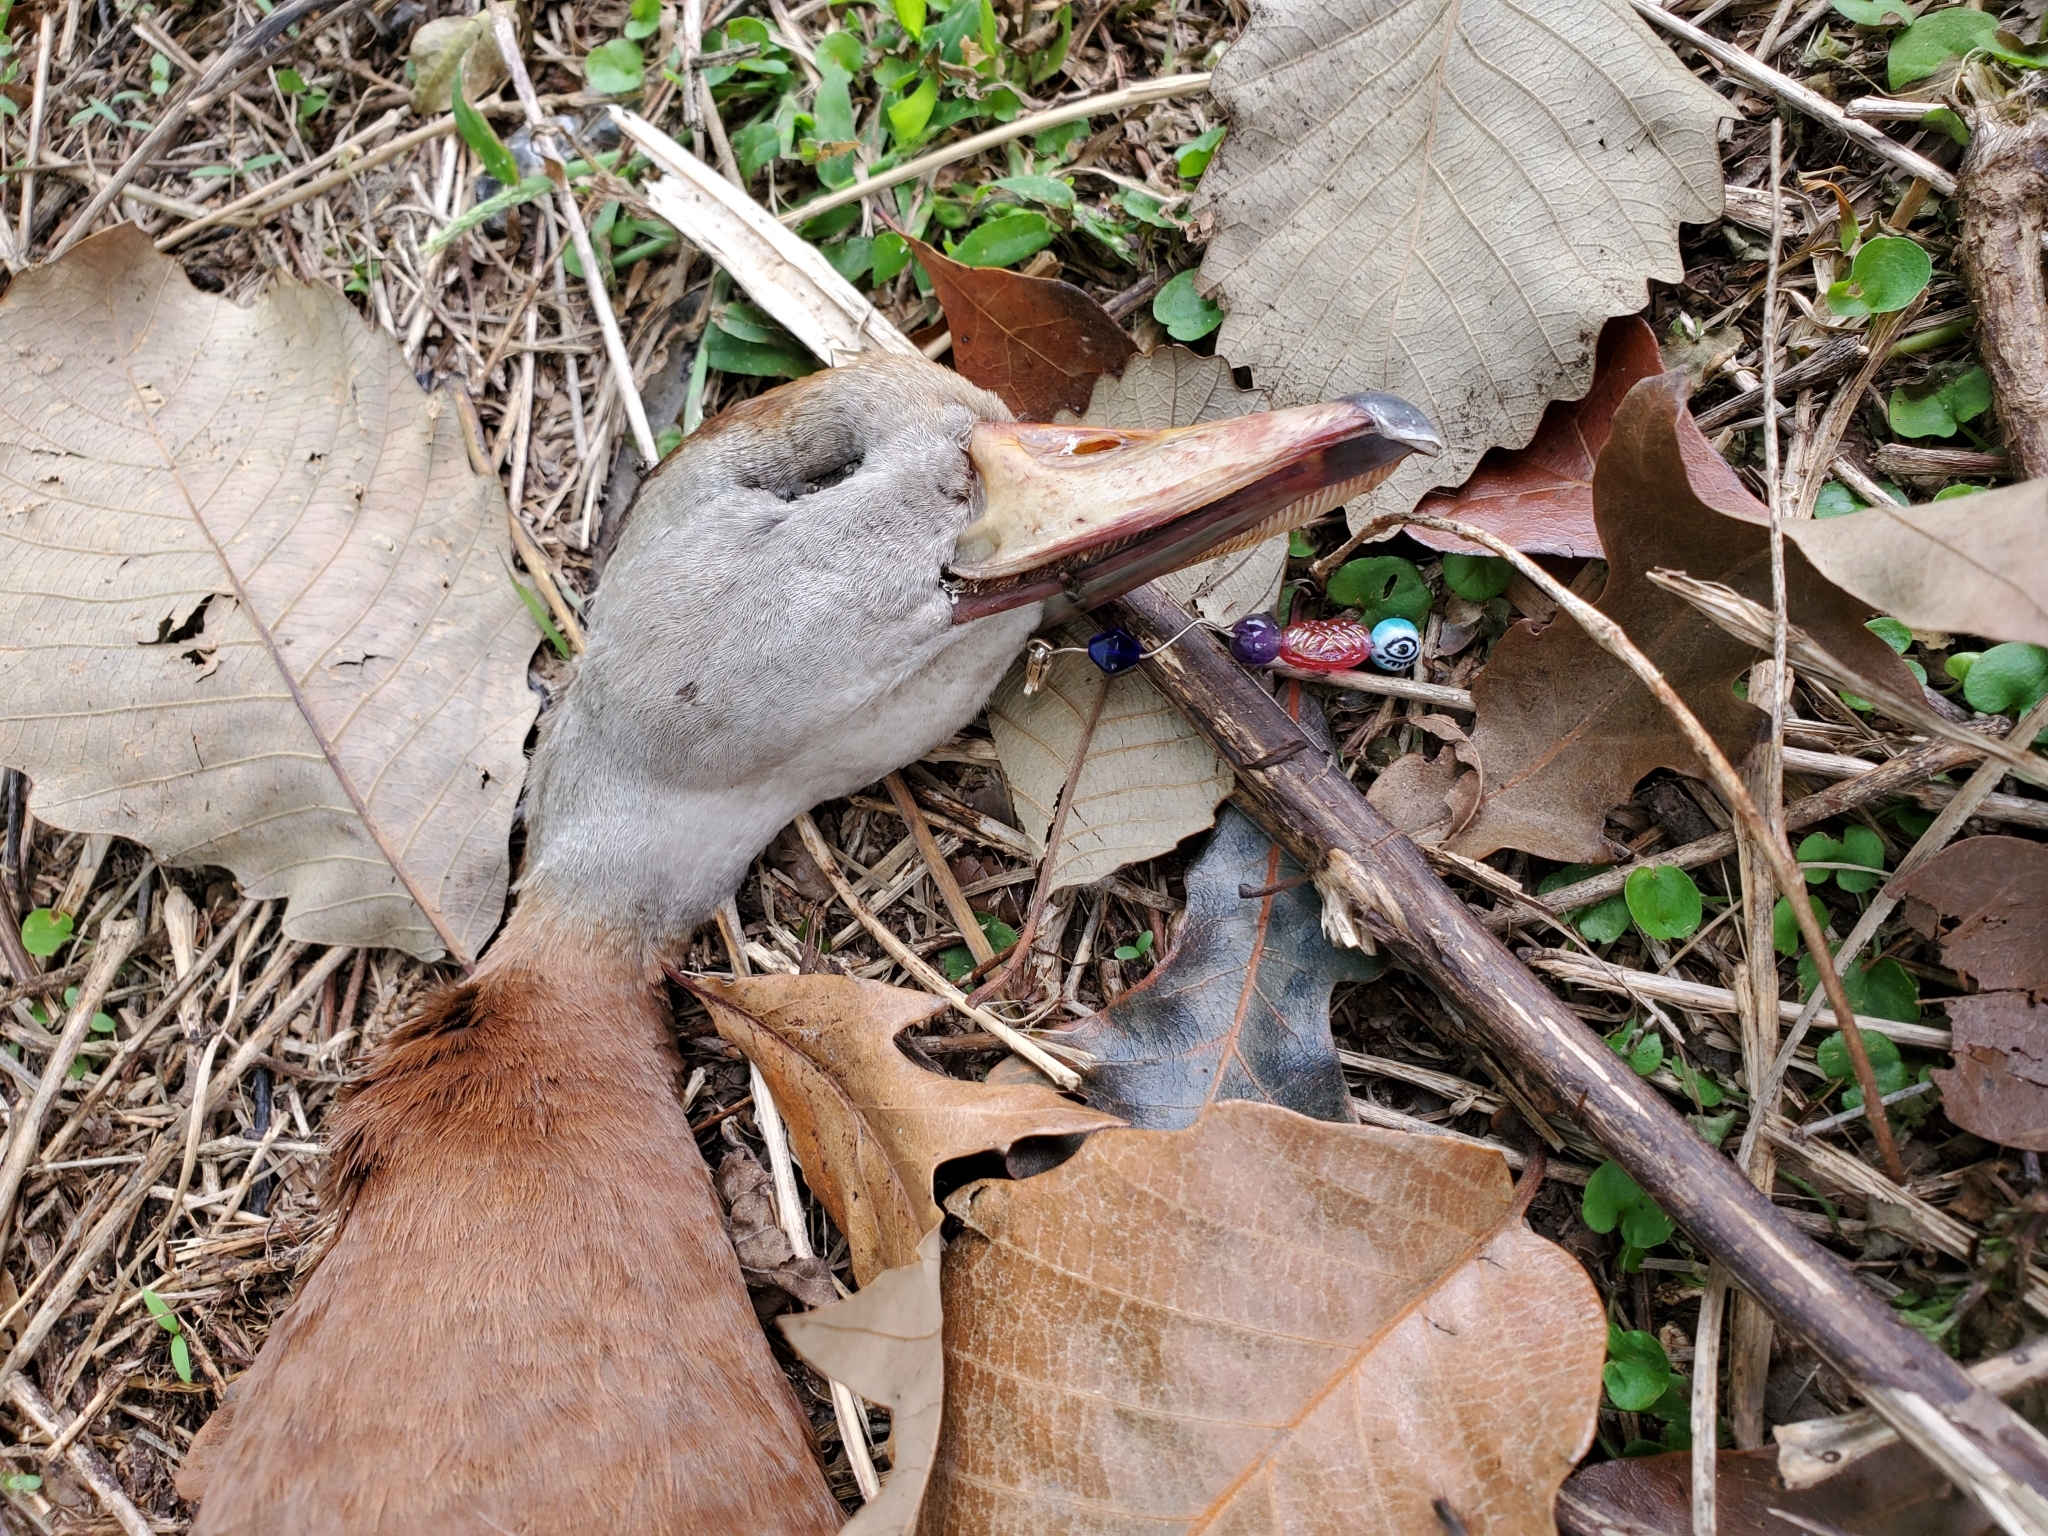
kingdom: Animalia
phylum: Chordata
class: Aves
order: Anseriformes
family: Anatidae
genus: Dendrocygna
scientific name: Dendrocygna autumnalis
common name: Black-bellied whistling duck
